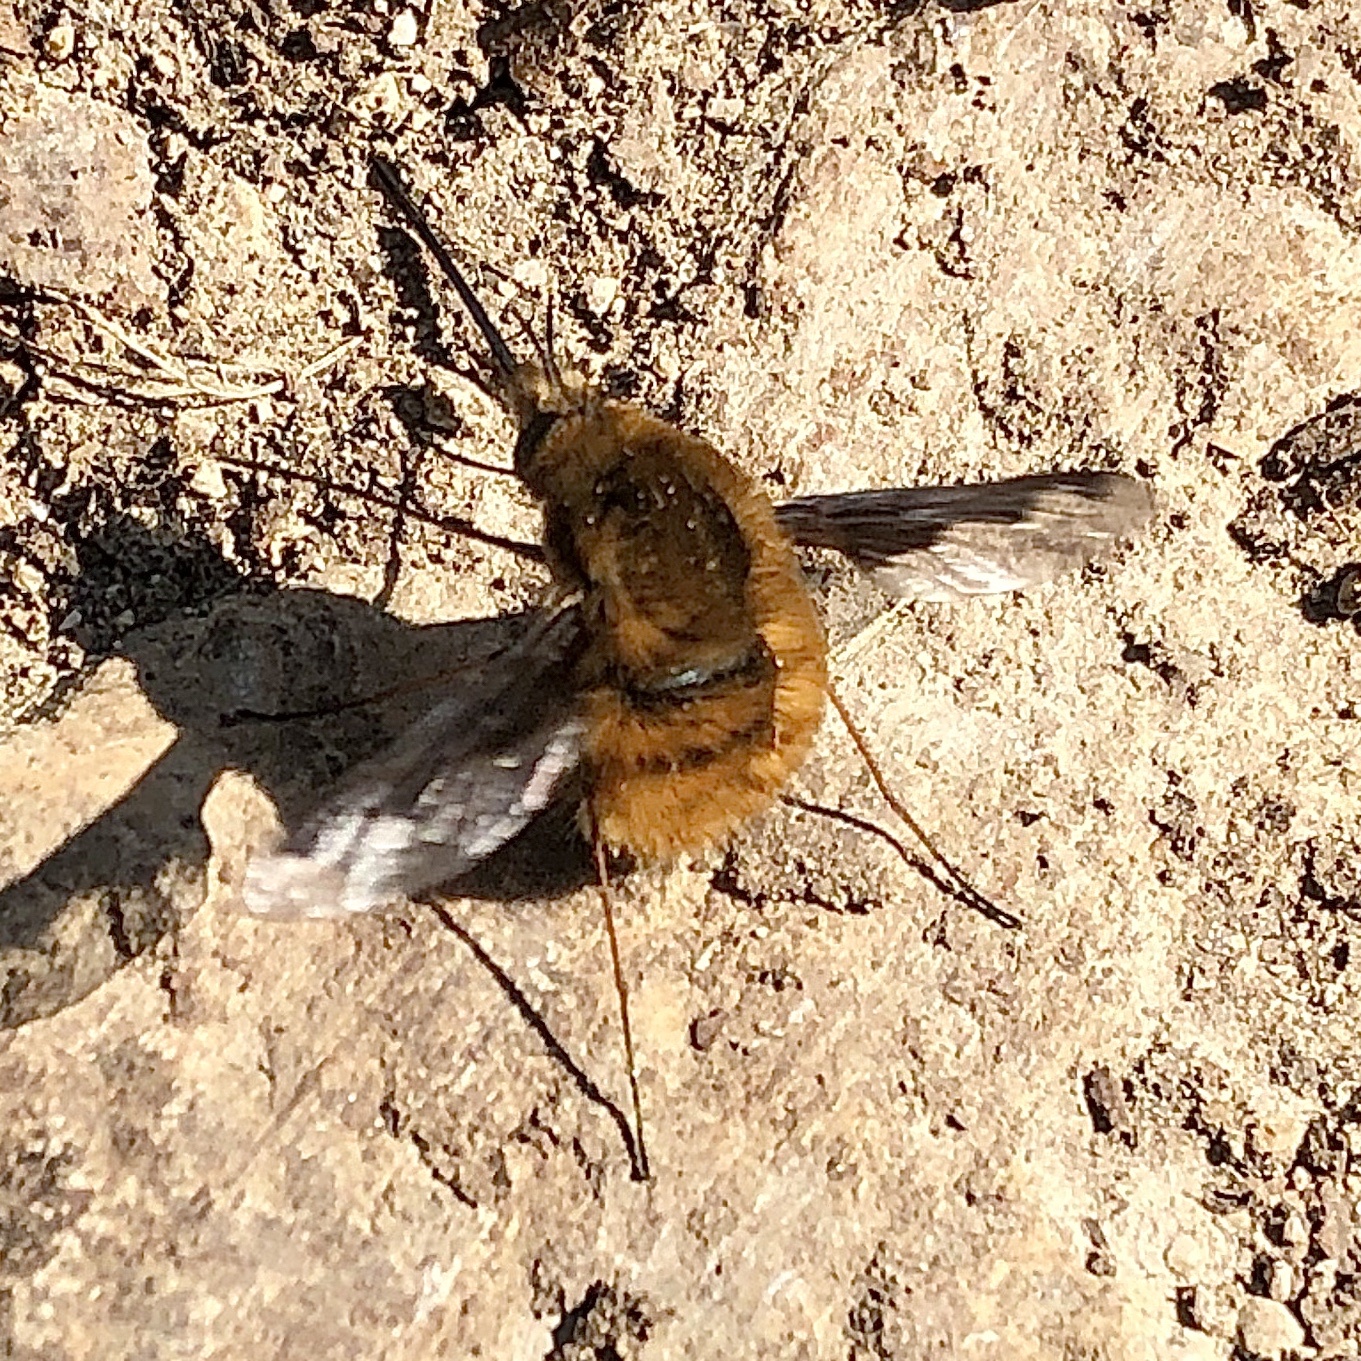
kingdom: Animalia
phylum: Arthropoda
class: Insecta
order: Diptera
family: Bombyliidae
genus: Bombylius
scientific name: Bombylius major
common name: Bee fly
